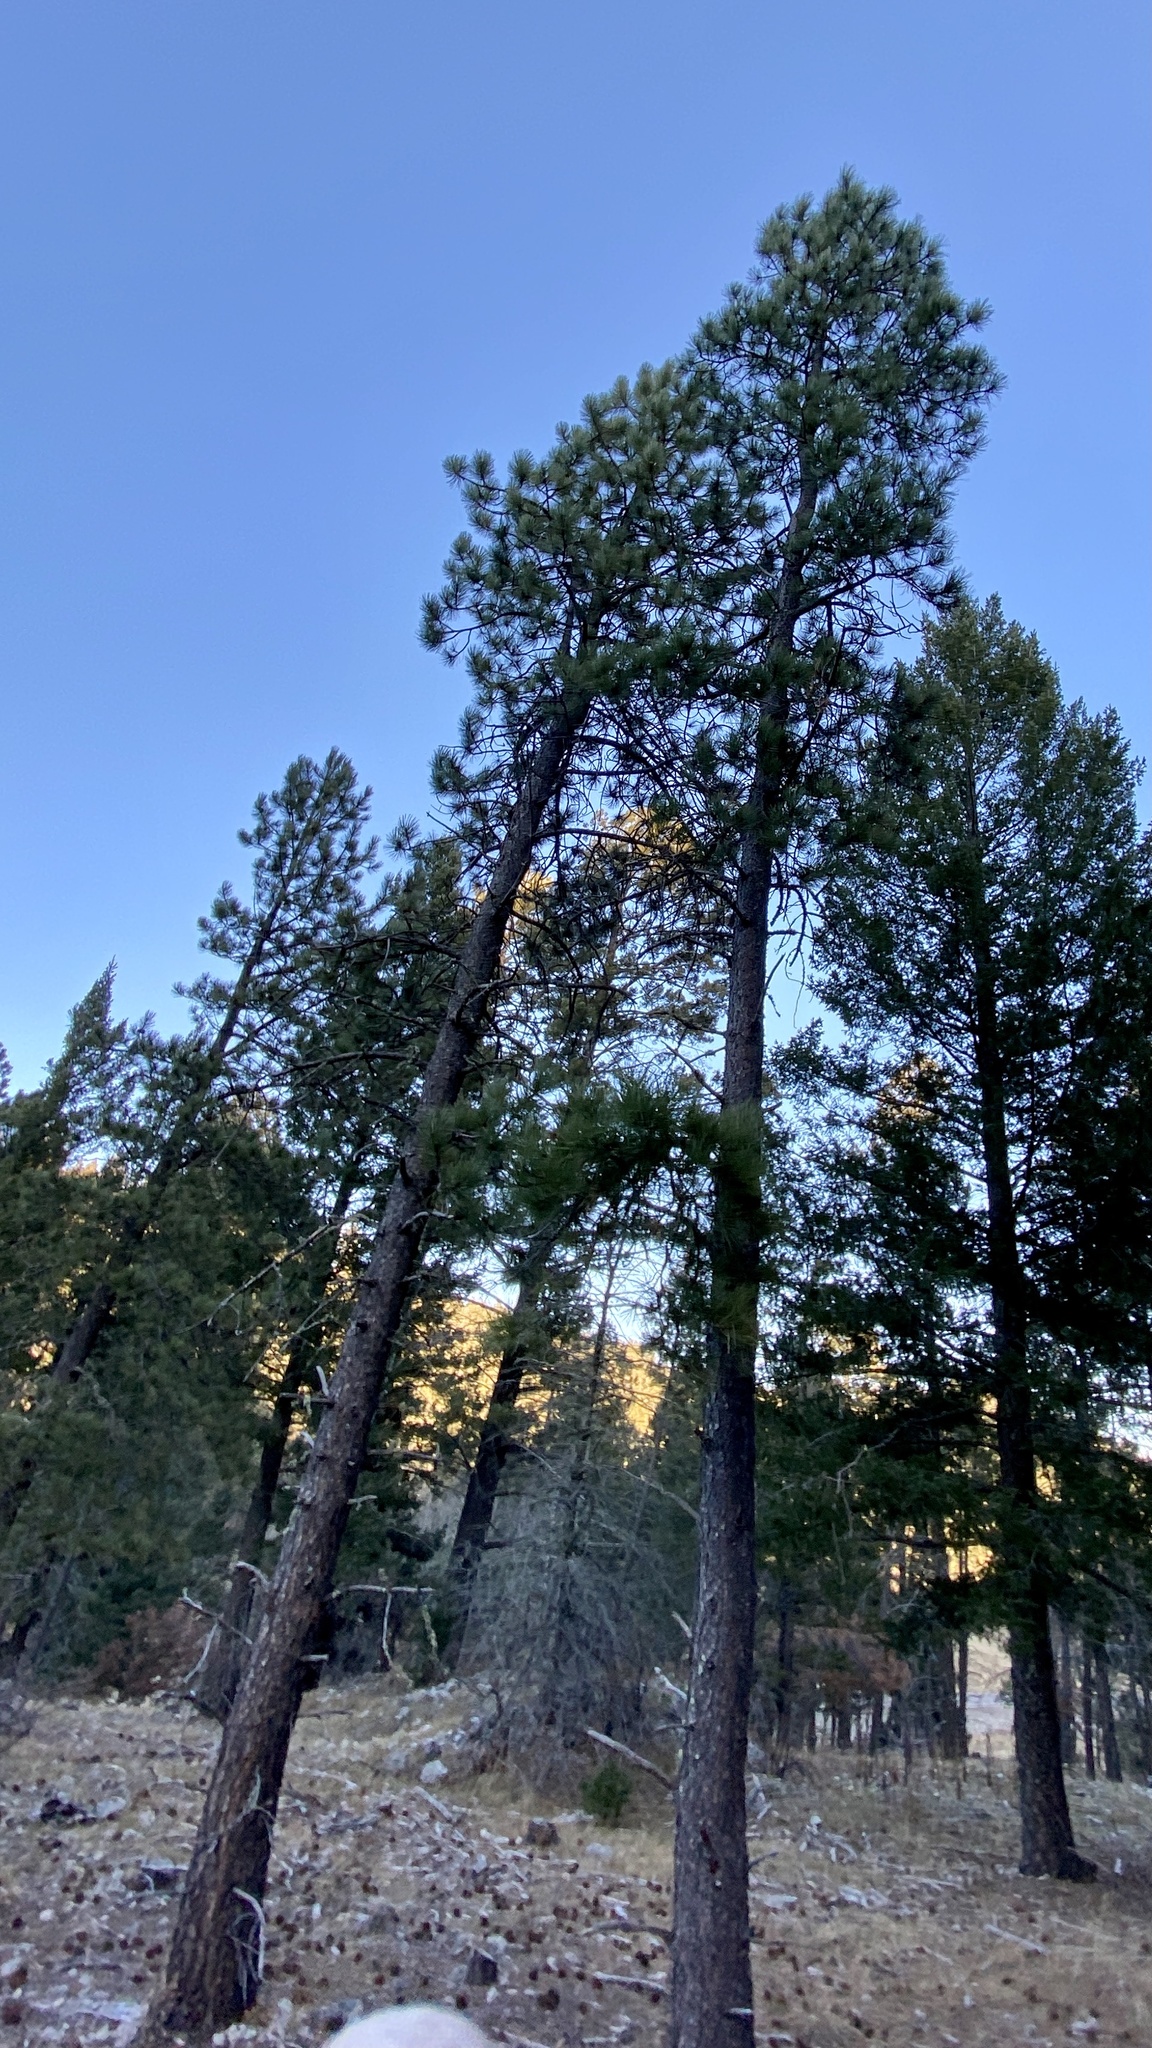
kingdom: Plantae
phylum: Tracheophyta
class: Pinopsida
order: Pinales
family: Pinaceae
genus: Pinus
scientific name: Pinus ponderosa
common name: Western yellow-pine
